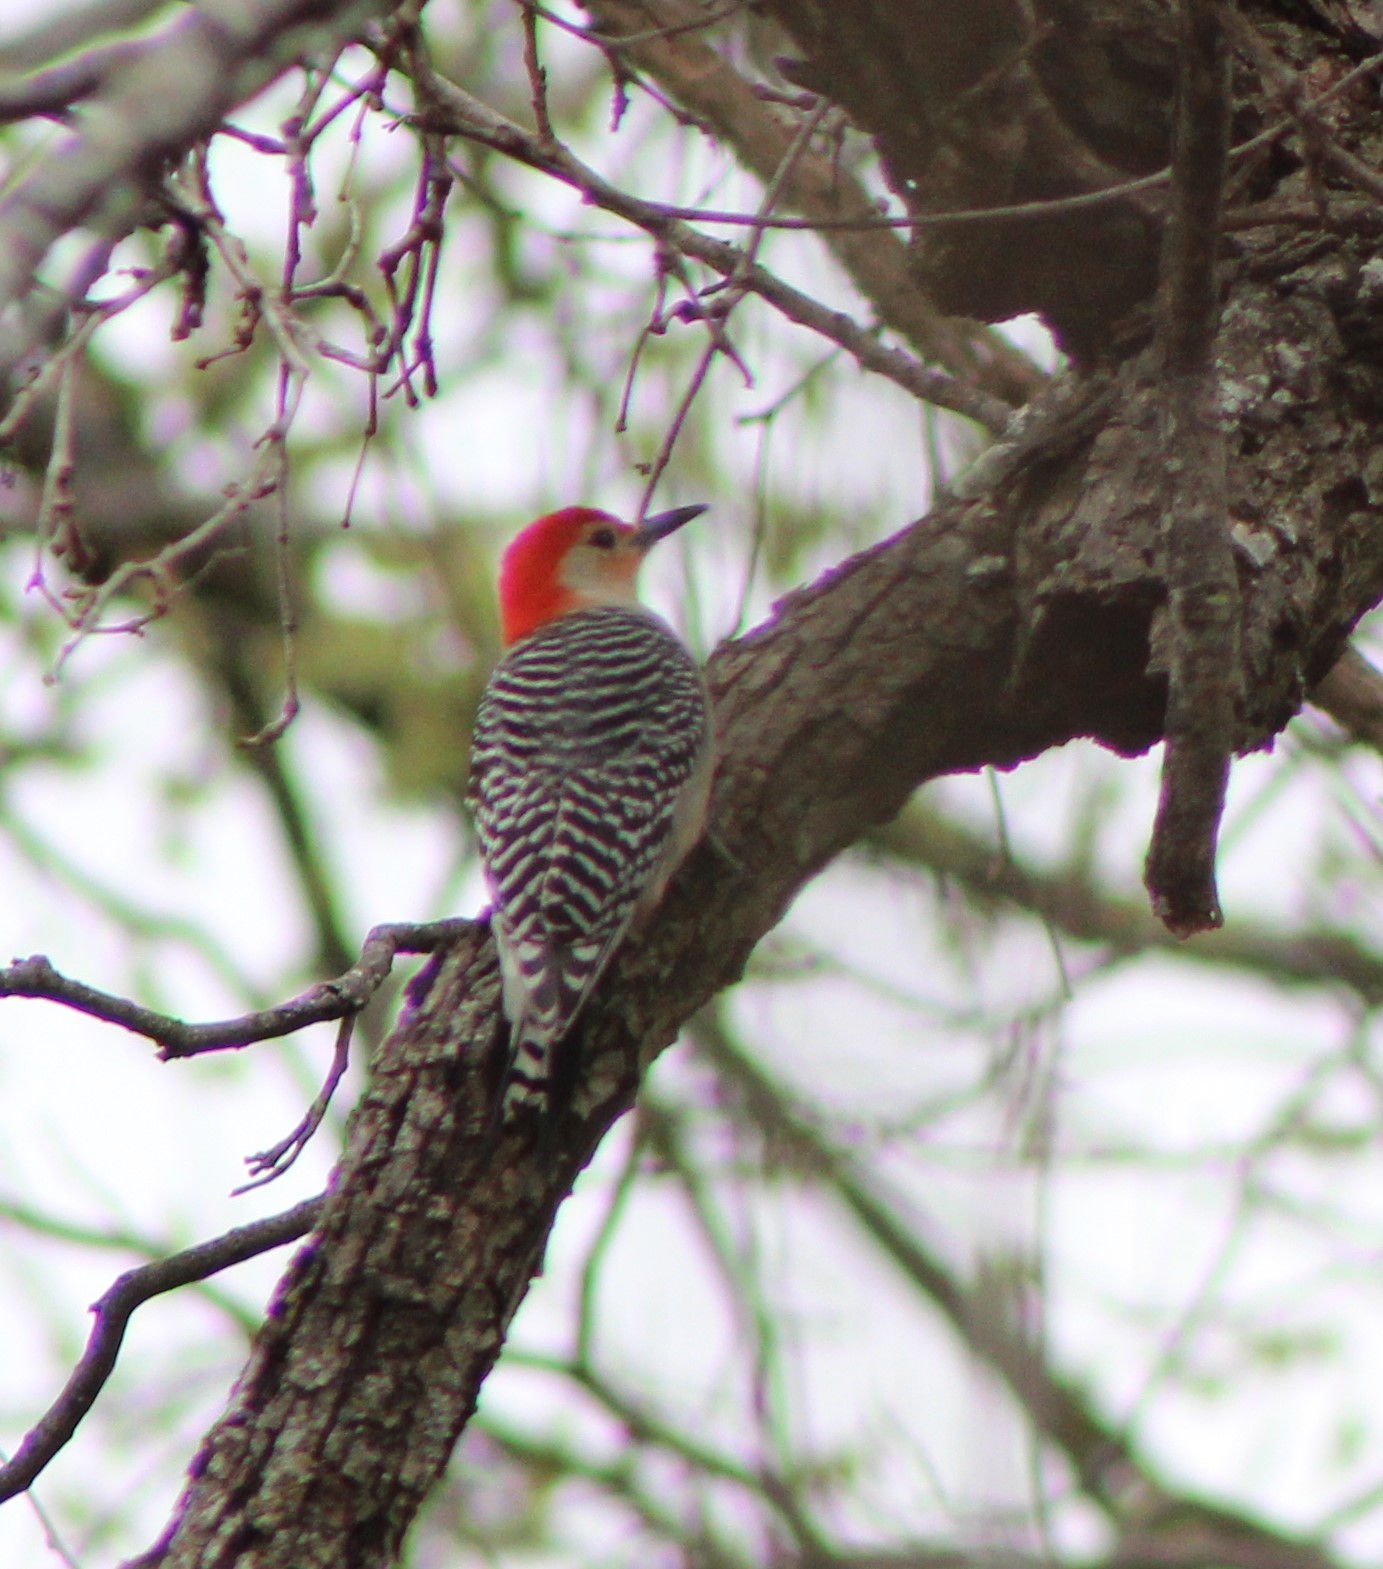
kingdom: Animalia
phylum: Chordata
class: Aves
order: Piciformes
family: Picidae
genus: Melanerpes
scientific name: Melanerpes carolinus
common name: Red-bellied woodpecker
